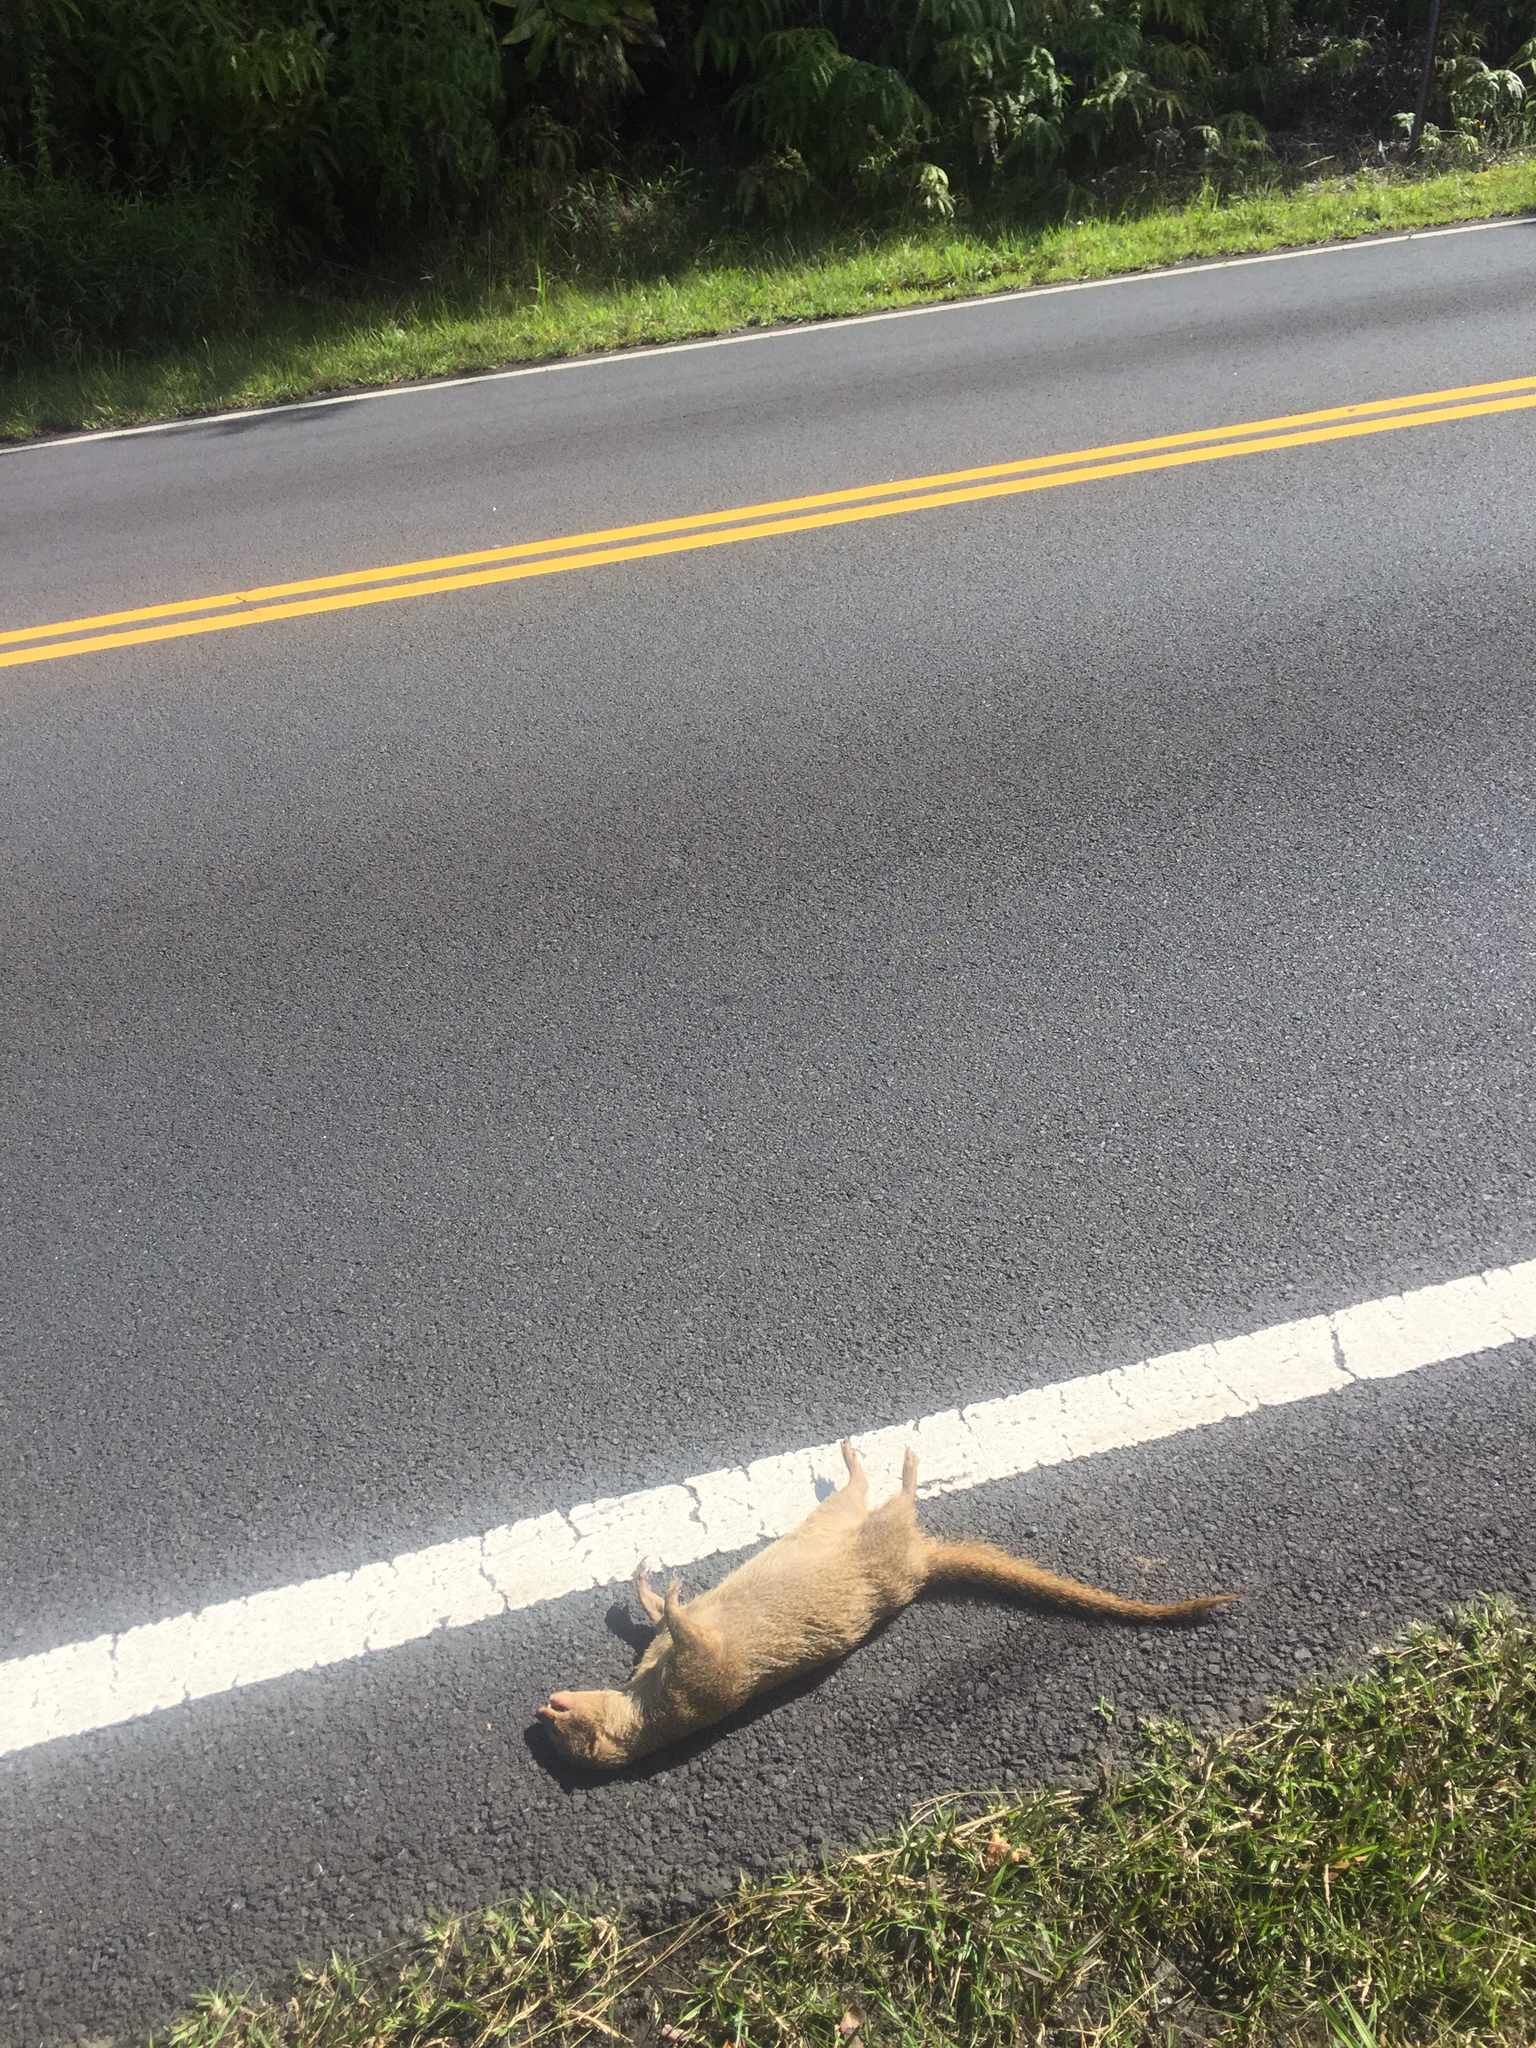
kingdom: Animalia
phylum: Chordata
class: Mammalia
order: Carnivora
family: Herpestidae
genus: Herpestes
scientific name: Herpestes javanicus
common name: Small asian mongoose
